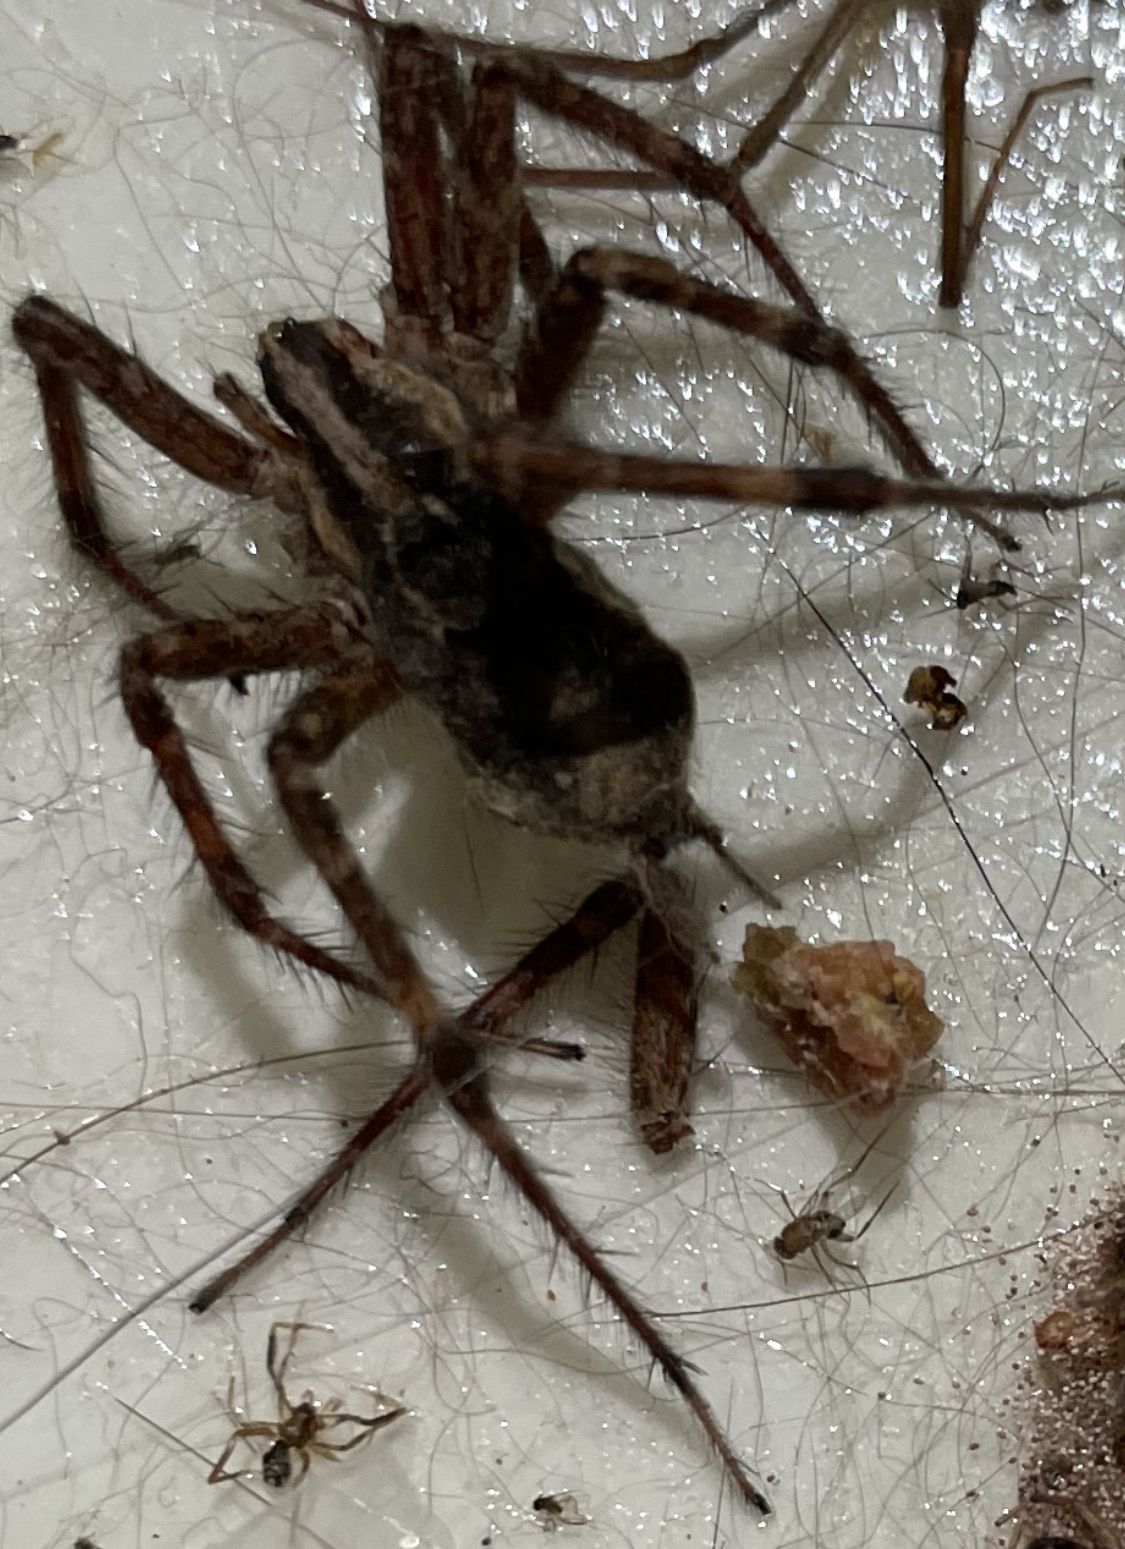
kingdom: Animalia
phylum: Arthropoda
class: Arachnida
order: Araneae
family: Agelenidae
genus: Agelenopsis
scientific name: Agelenopsis
